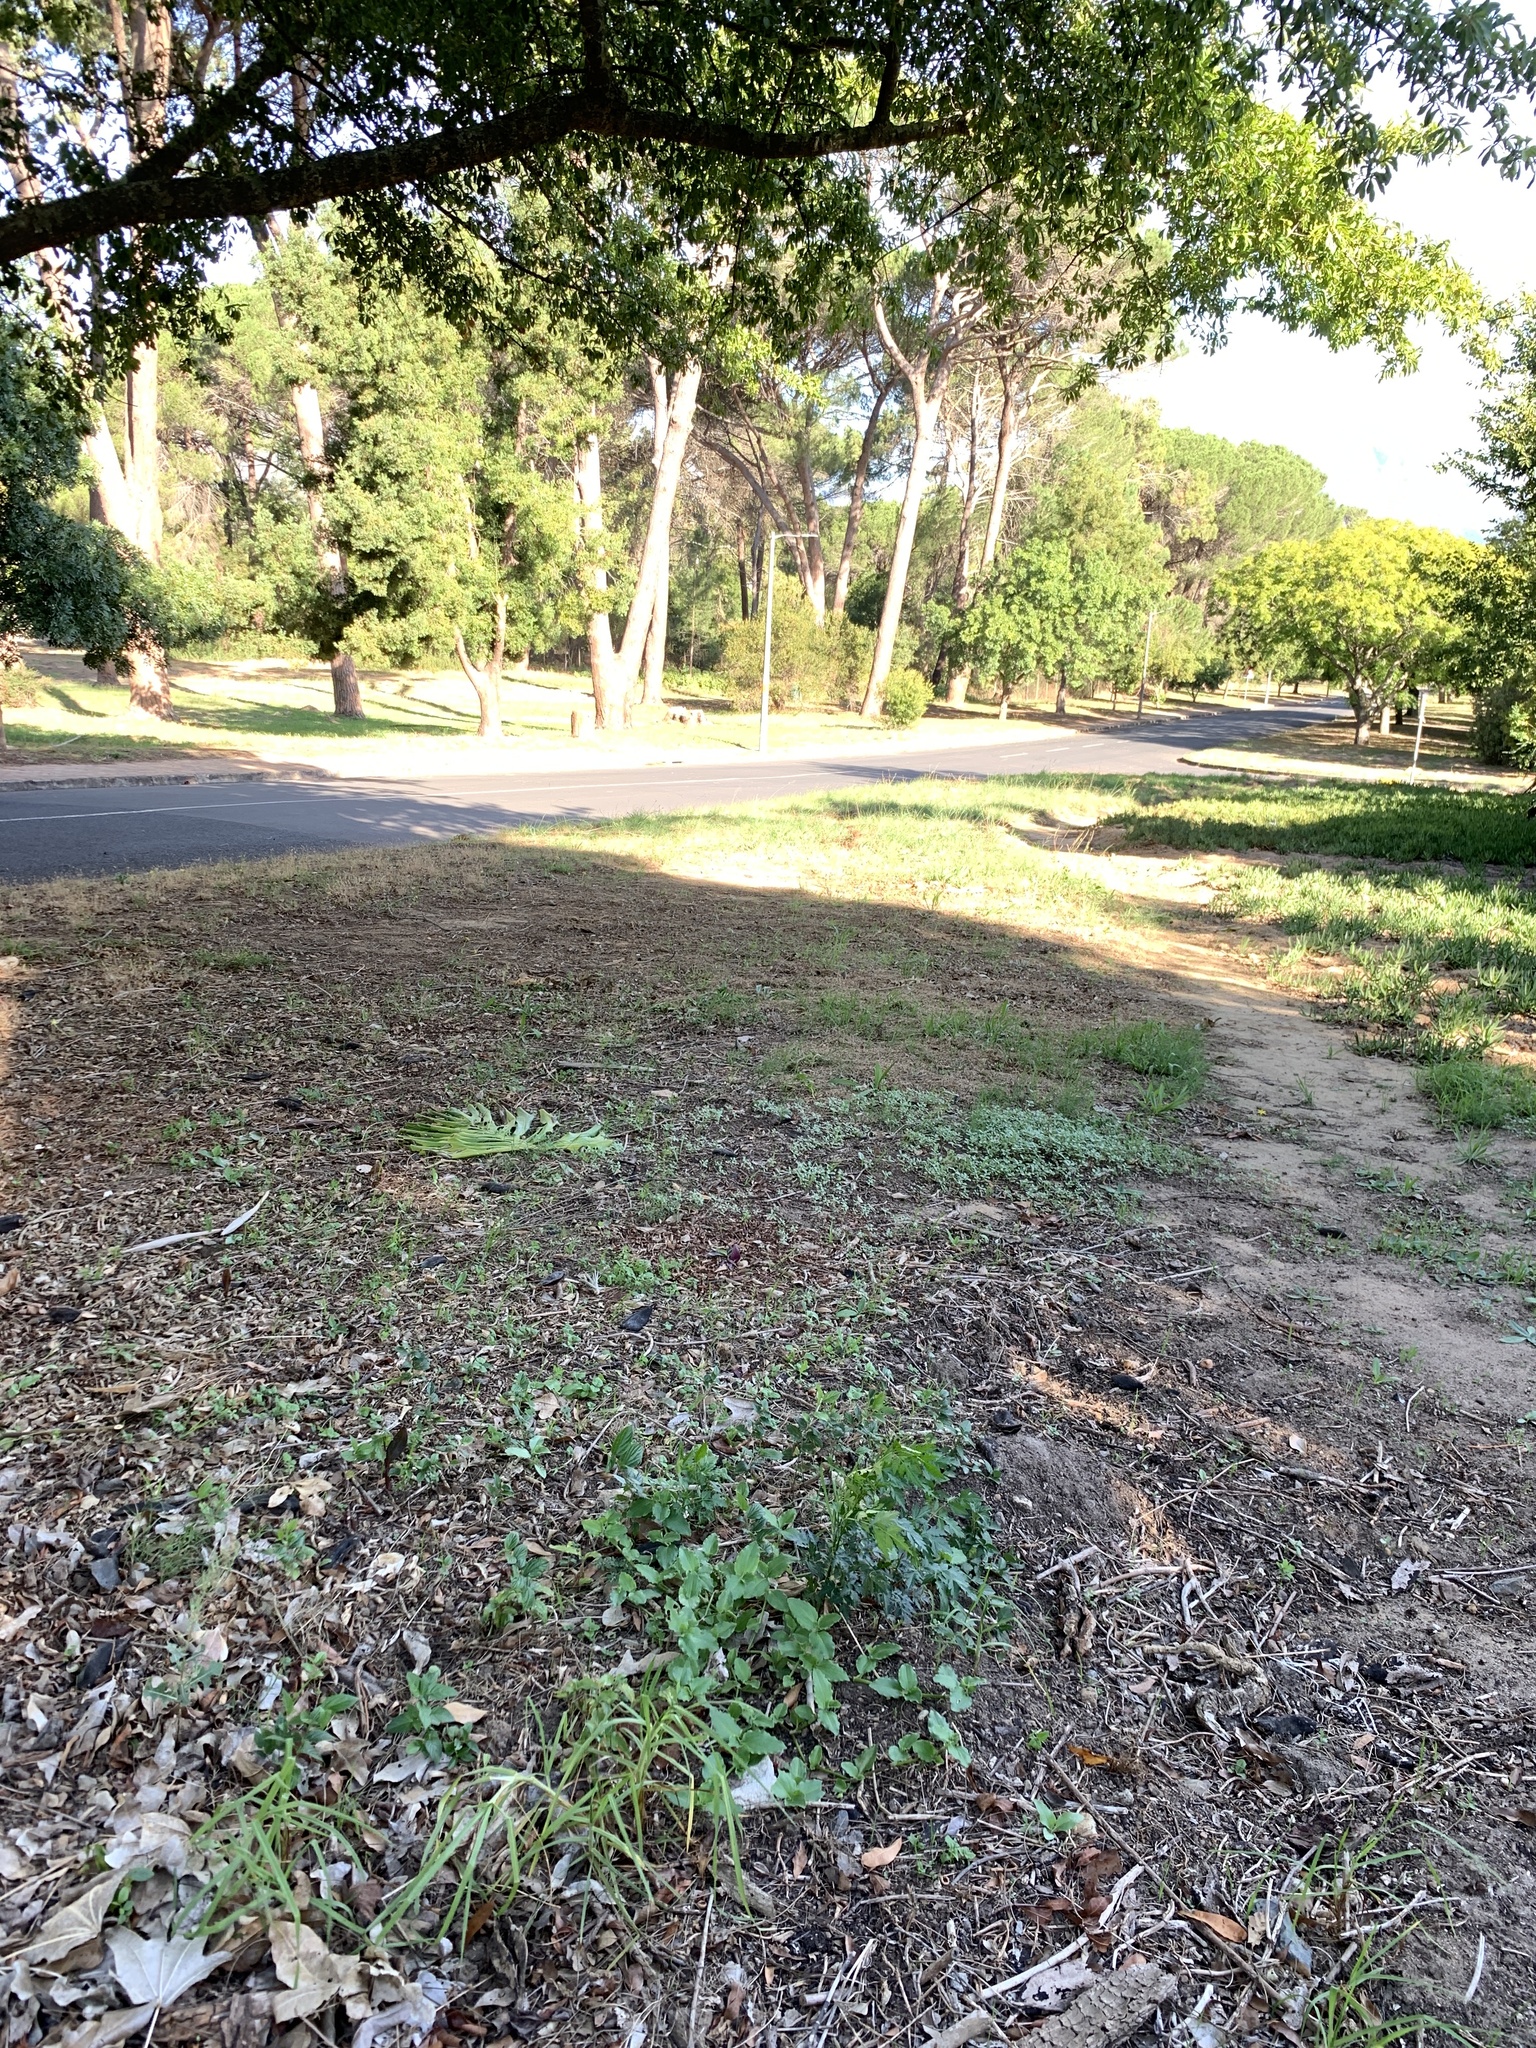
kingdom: Plantae
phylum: Tracheophyta
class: Magnoliopsida
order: Sapindales
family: Meliaceae
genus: Melia
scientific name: Melia azedarach
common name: Chinaberrytree
